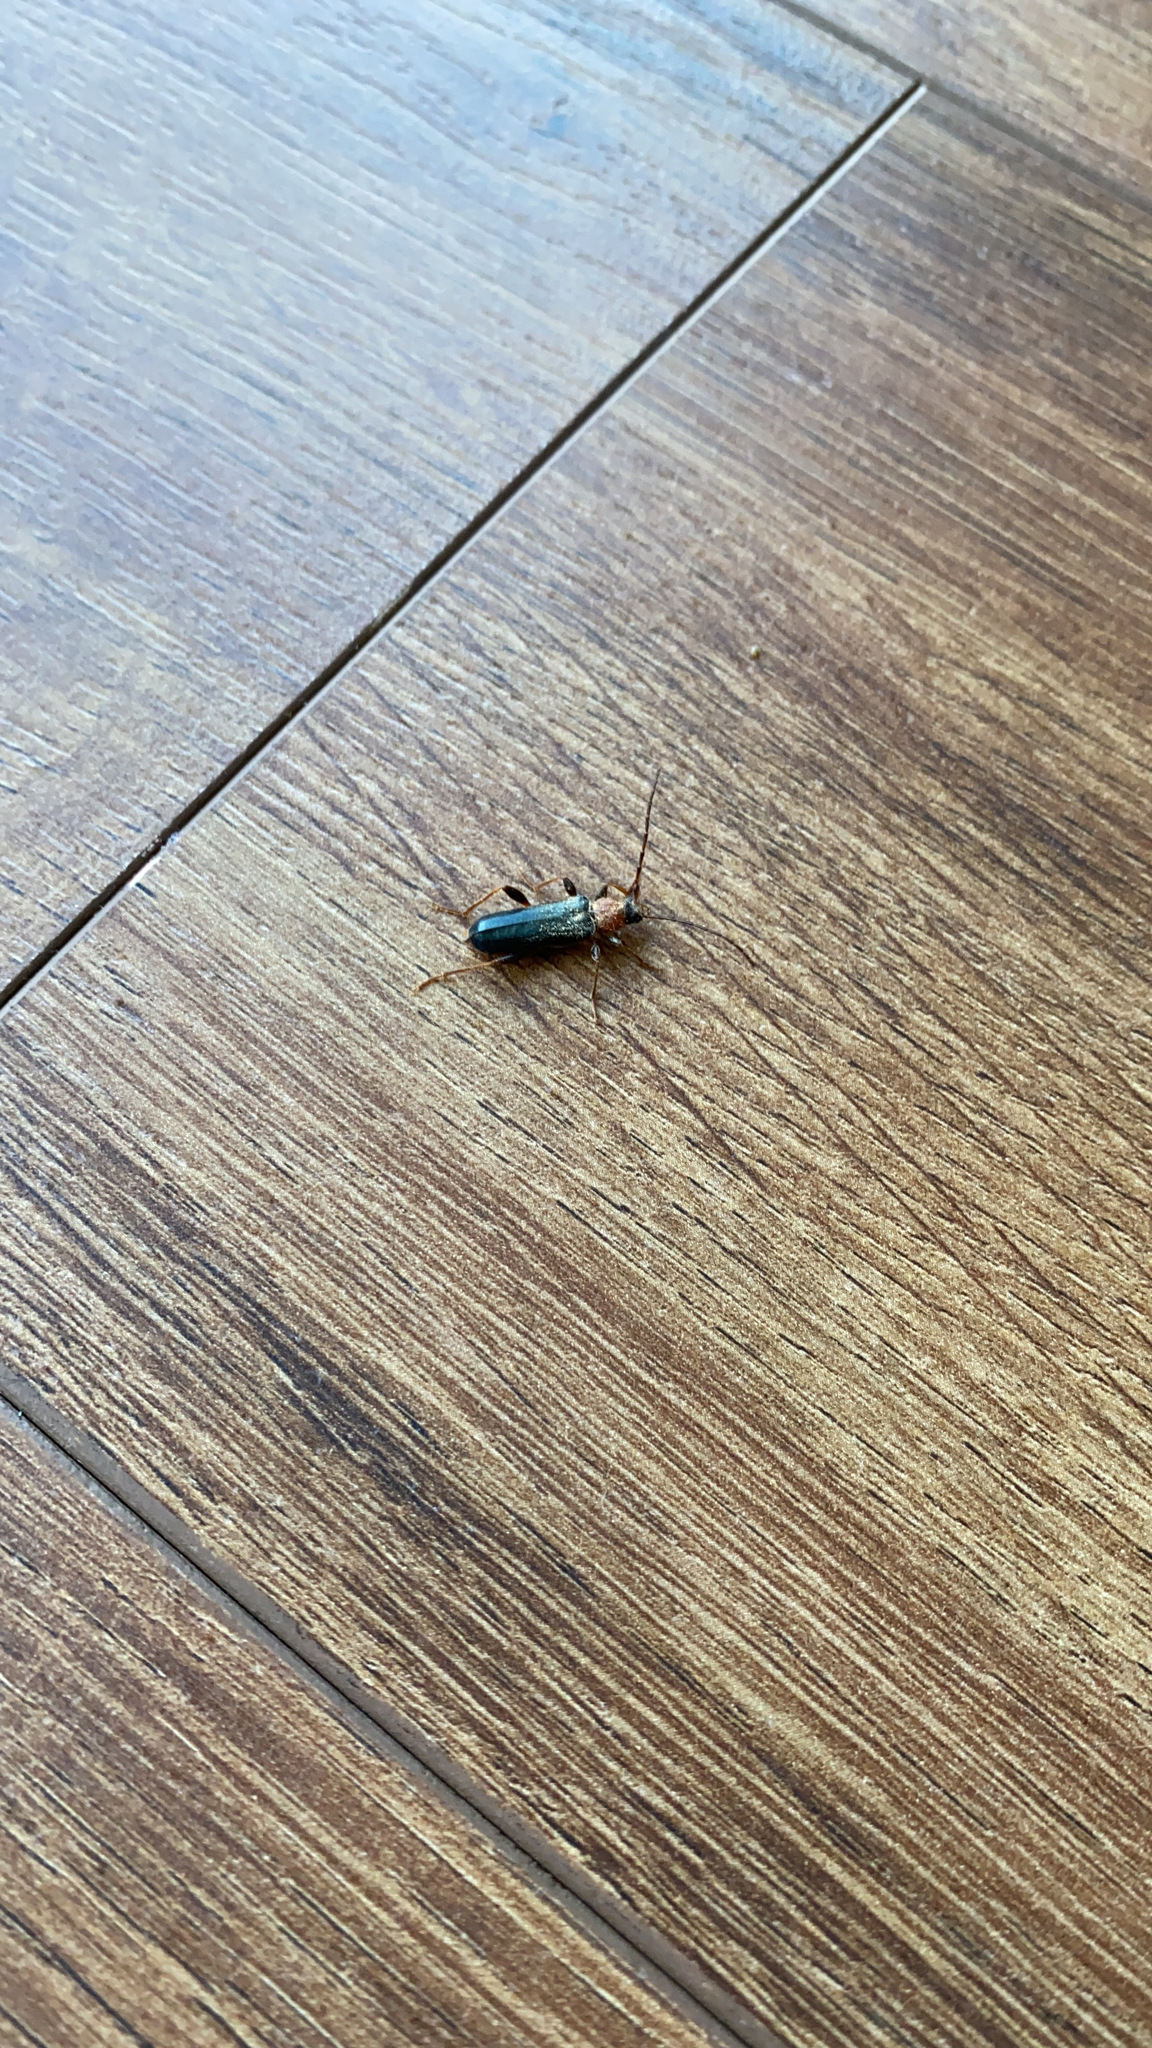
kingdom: Animalia
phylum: Arthropoda
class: Insecta
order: Coleoptera
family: Cerambycidae
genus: Phymatodes
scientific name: Phymatodes testaceus
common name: Long-horned beetle
